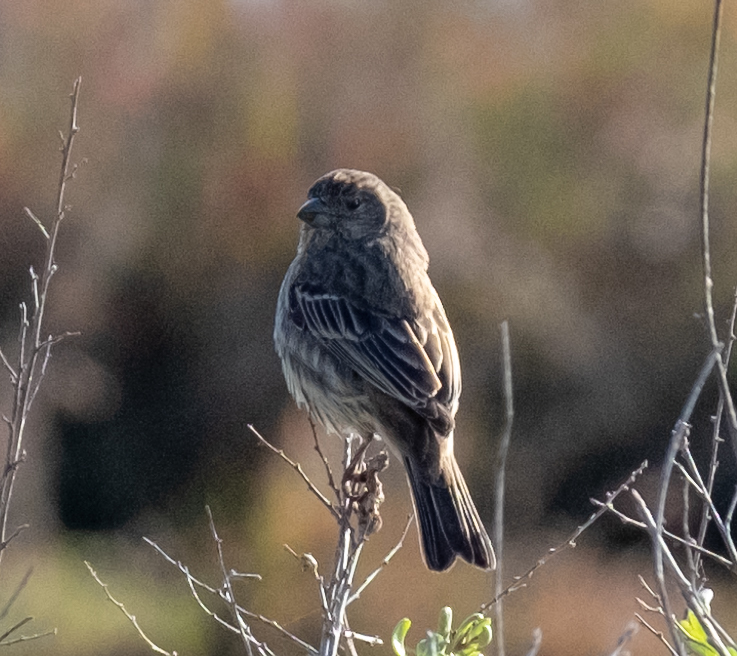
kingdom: Animalia
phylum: Chordata
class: Aves
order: Passeriformes
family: Fringillidae
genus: Haemorhous
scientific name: Haemorhous mexicanus
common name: House finch
